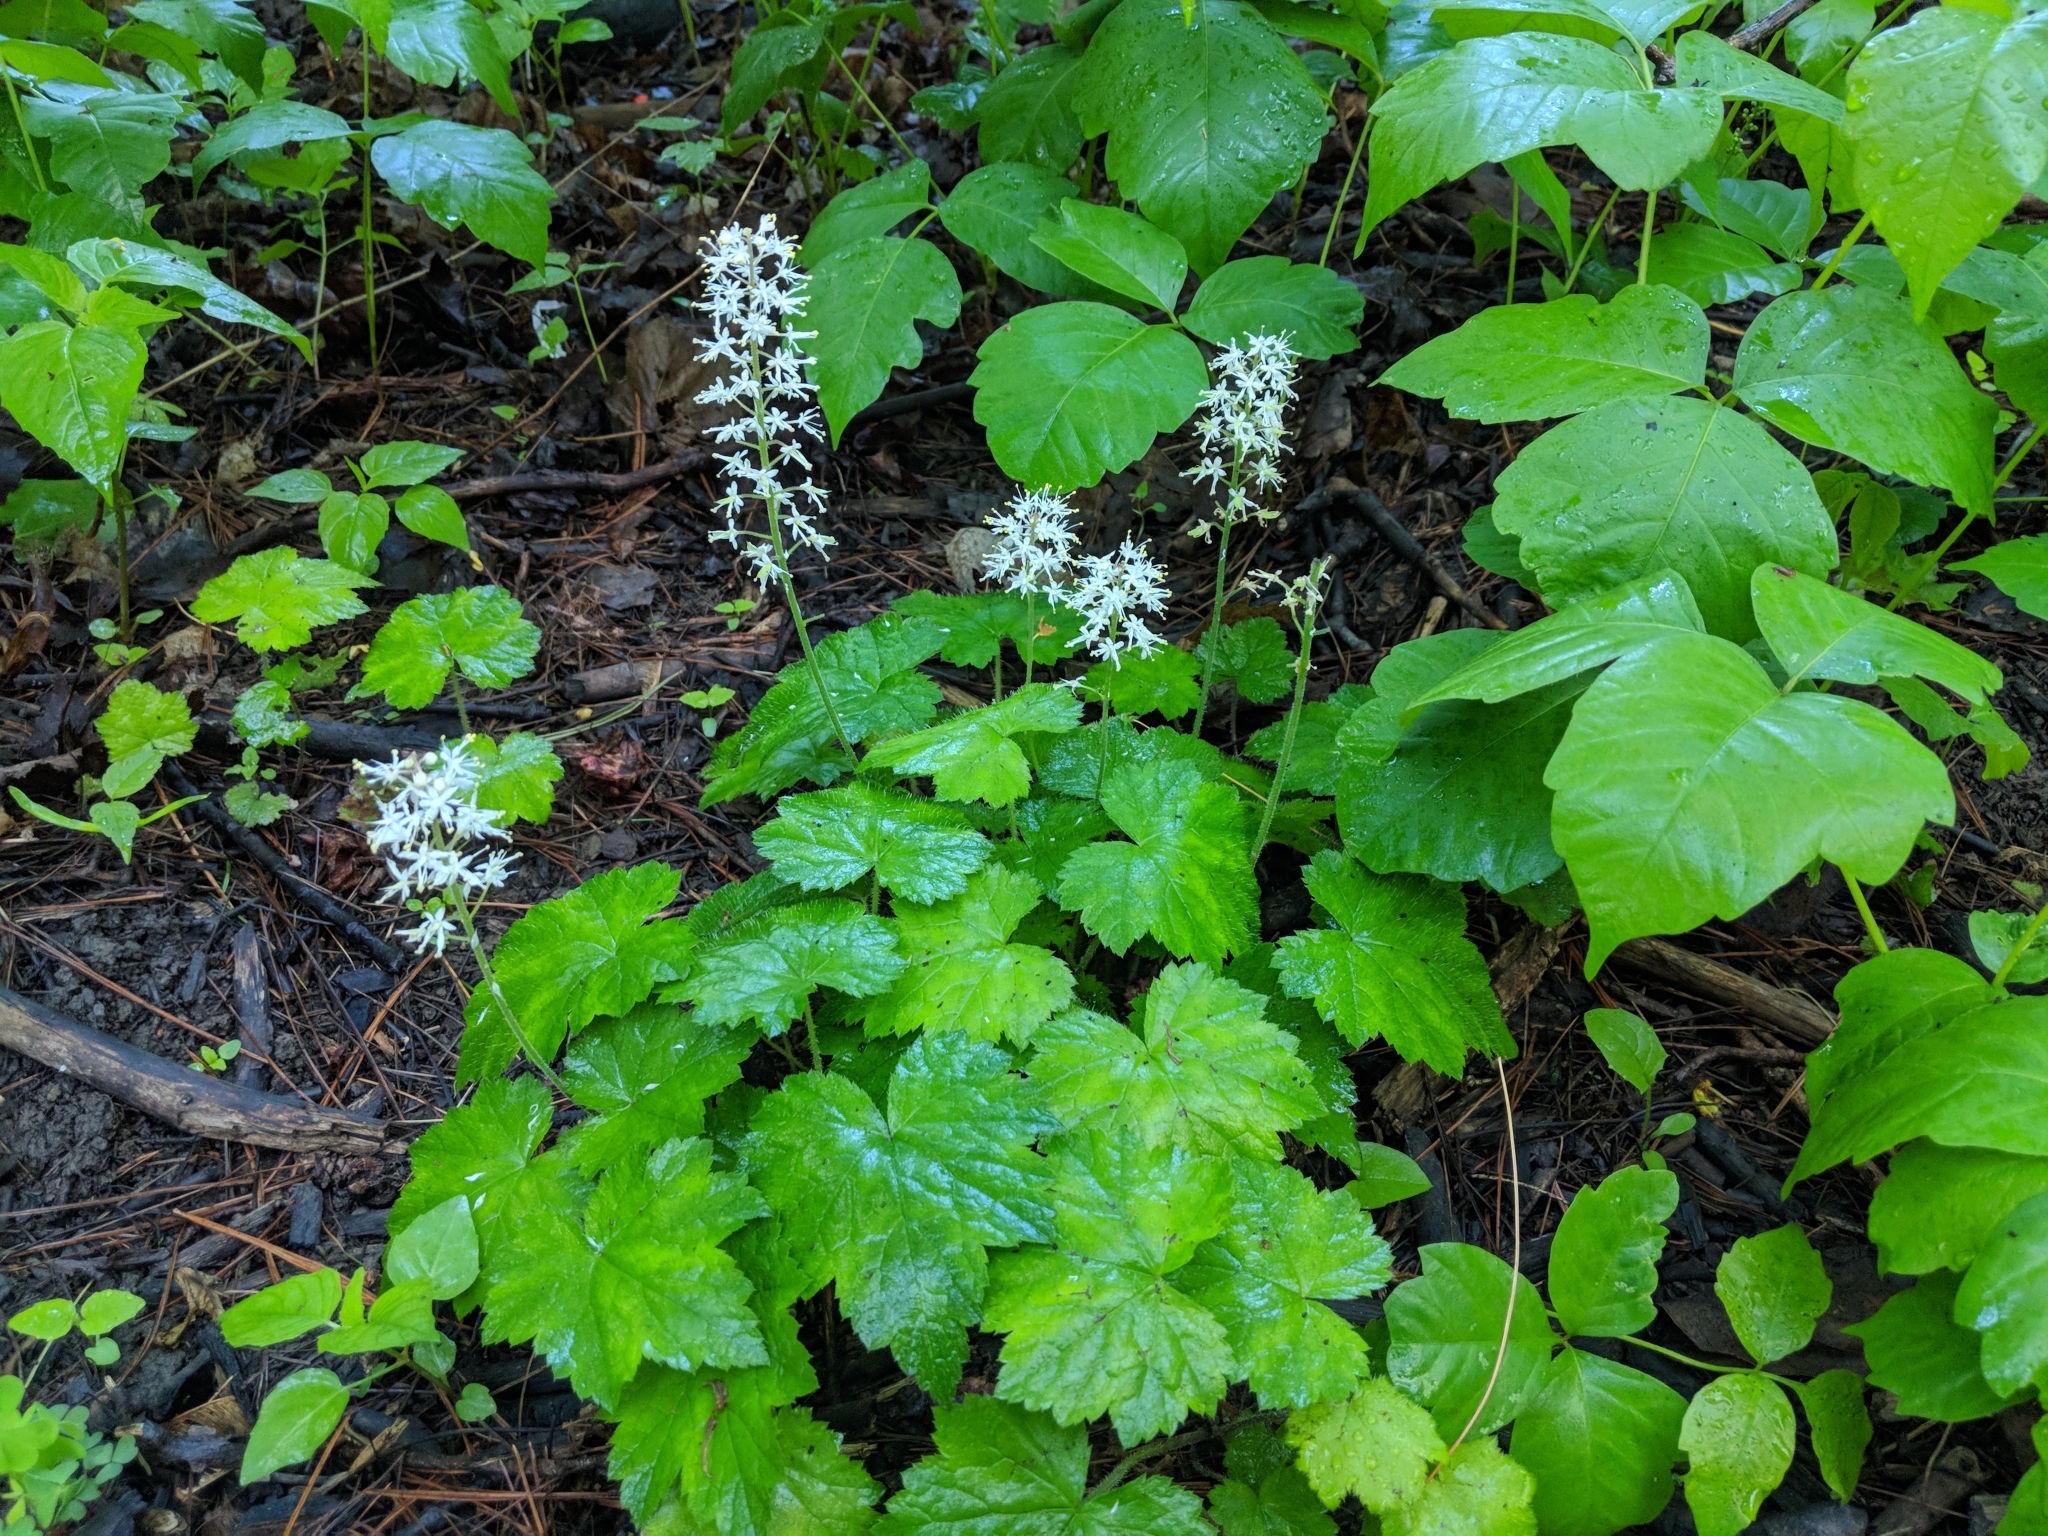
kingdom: Plantae
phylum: Tracheophyta
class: Magnoliopsida
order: Saxifragales
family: Saxifragaceae
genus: Tiarella
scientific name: Tiarella stolonifera
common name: Stoloniferous foamflower
